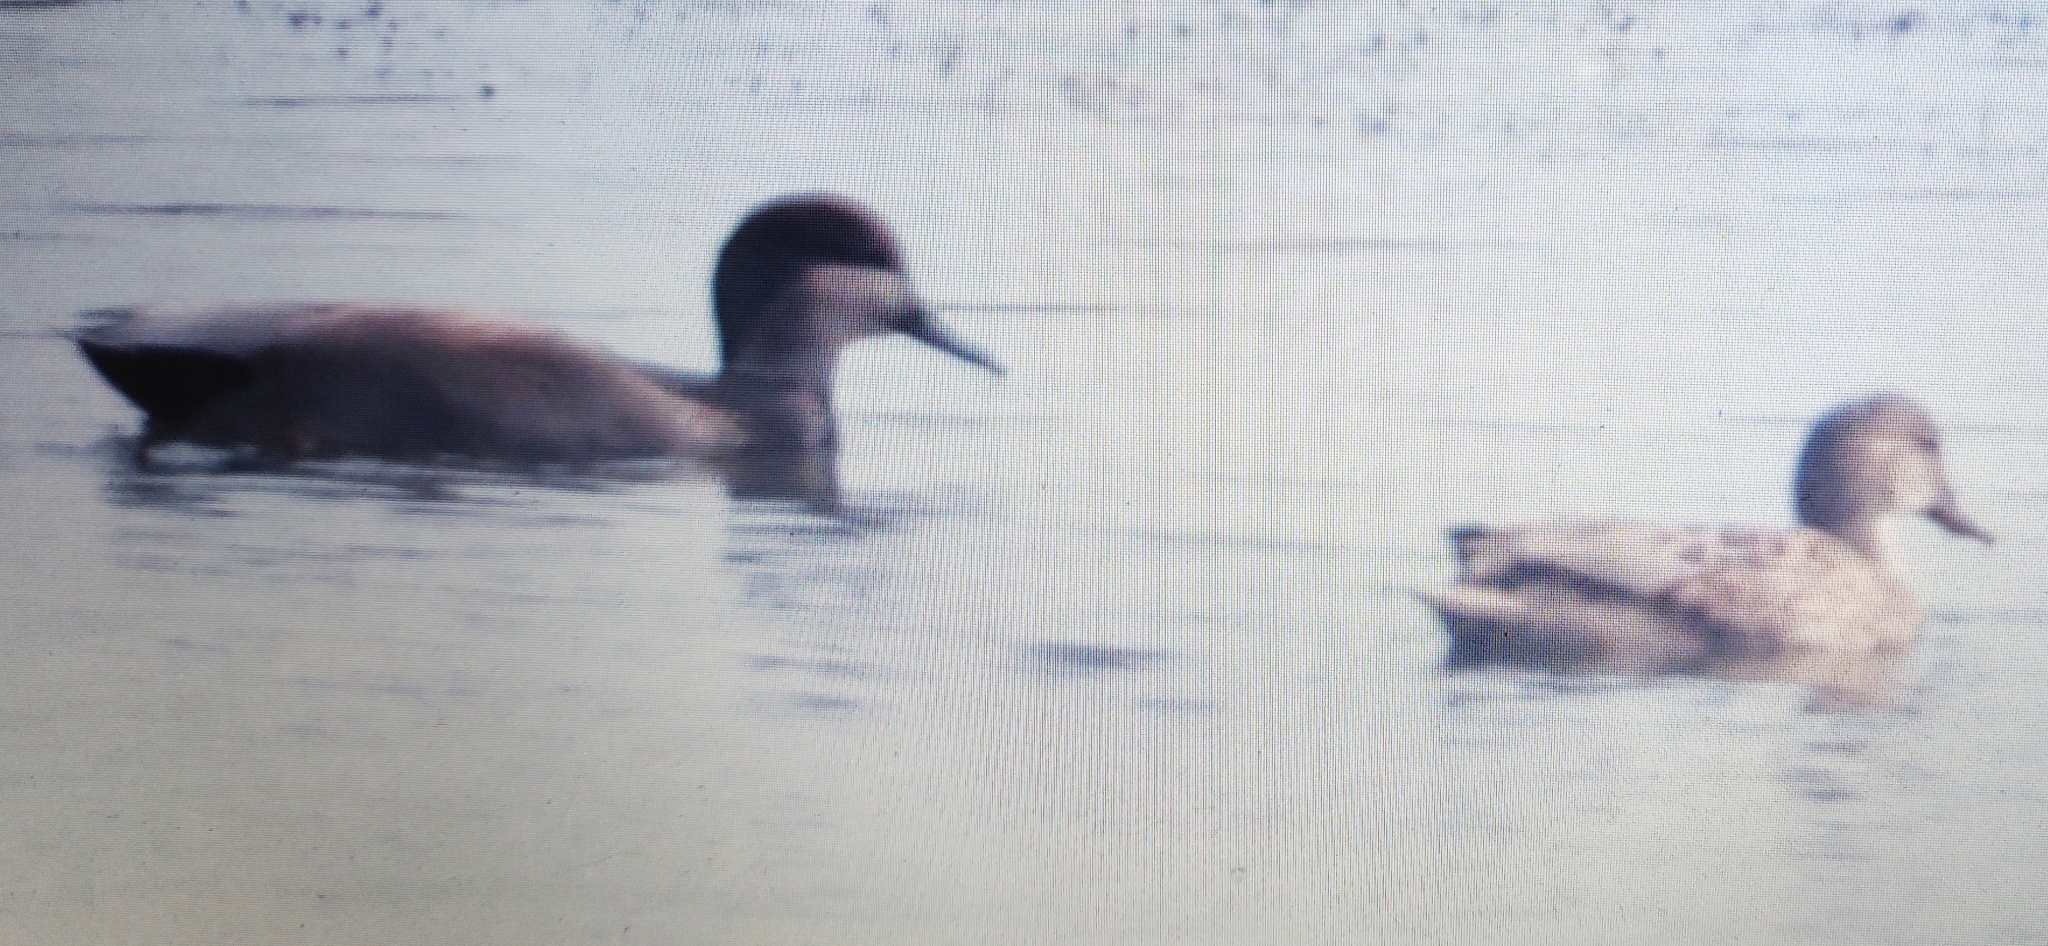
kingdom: Animalia
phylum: Chordata
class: Aves
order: Anseriformes
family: Anatidae
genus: Mareca
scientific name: Mareca strepera
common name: Gadwall
